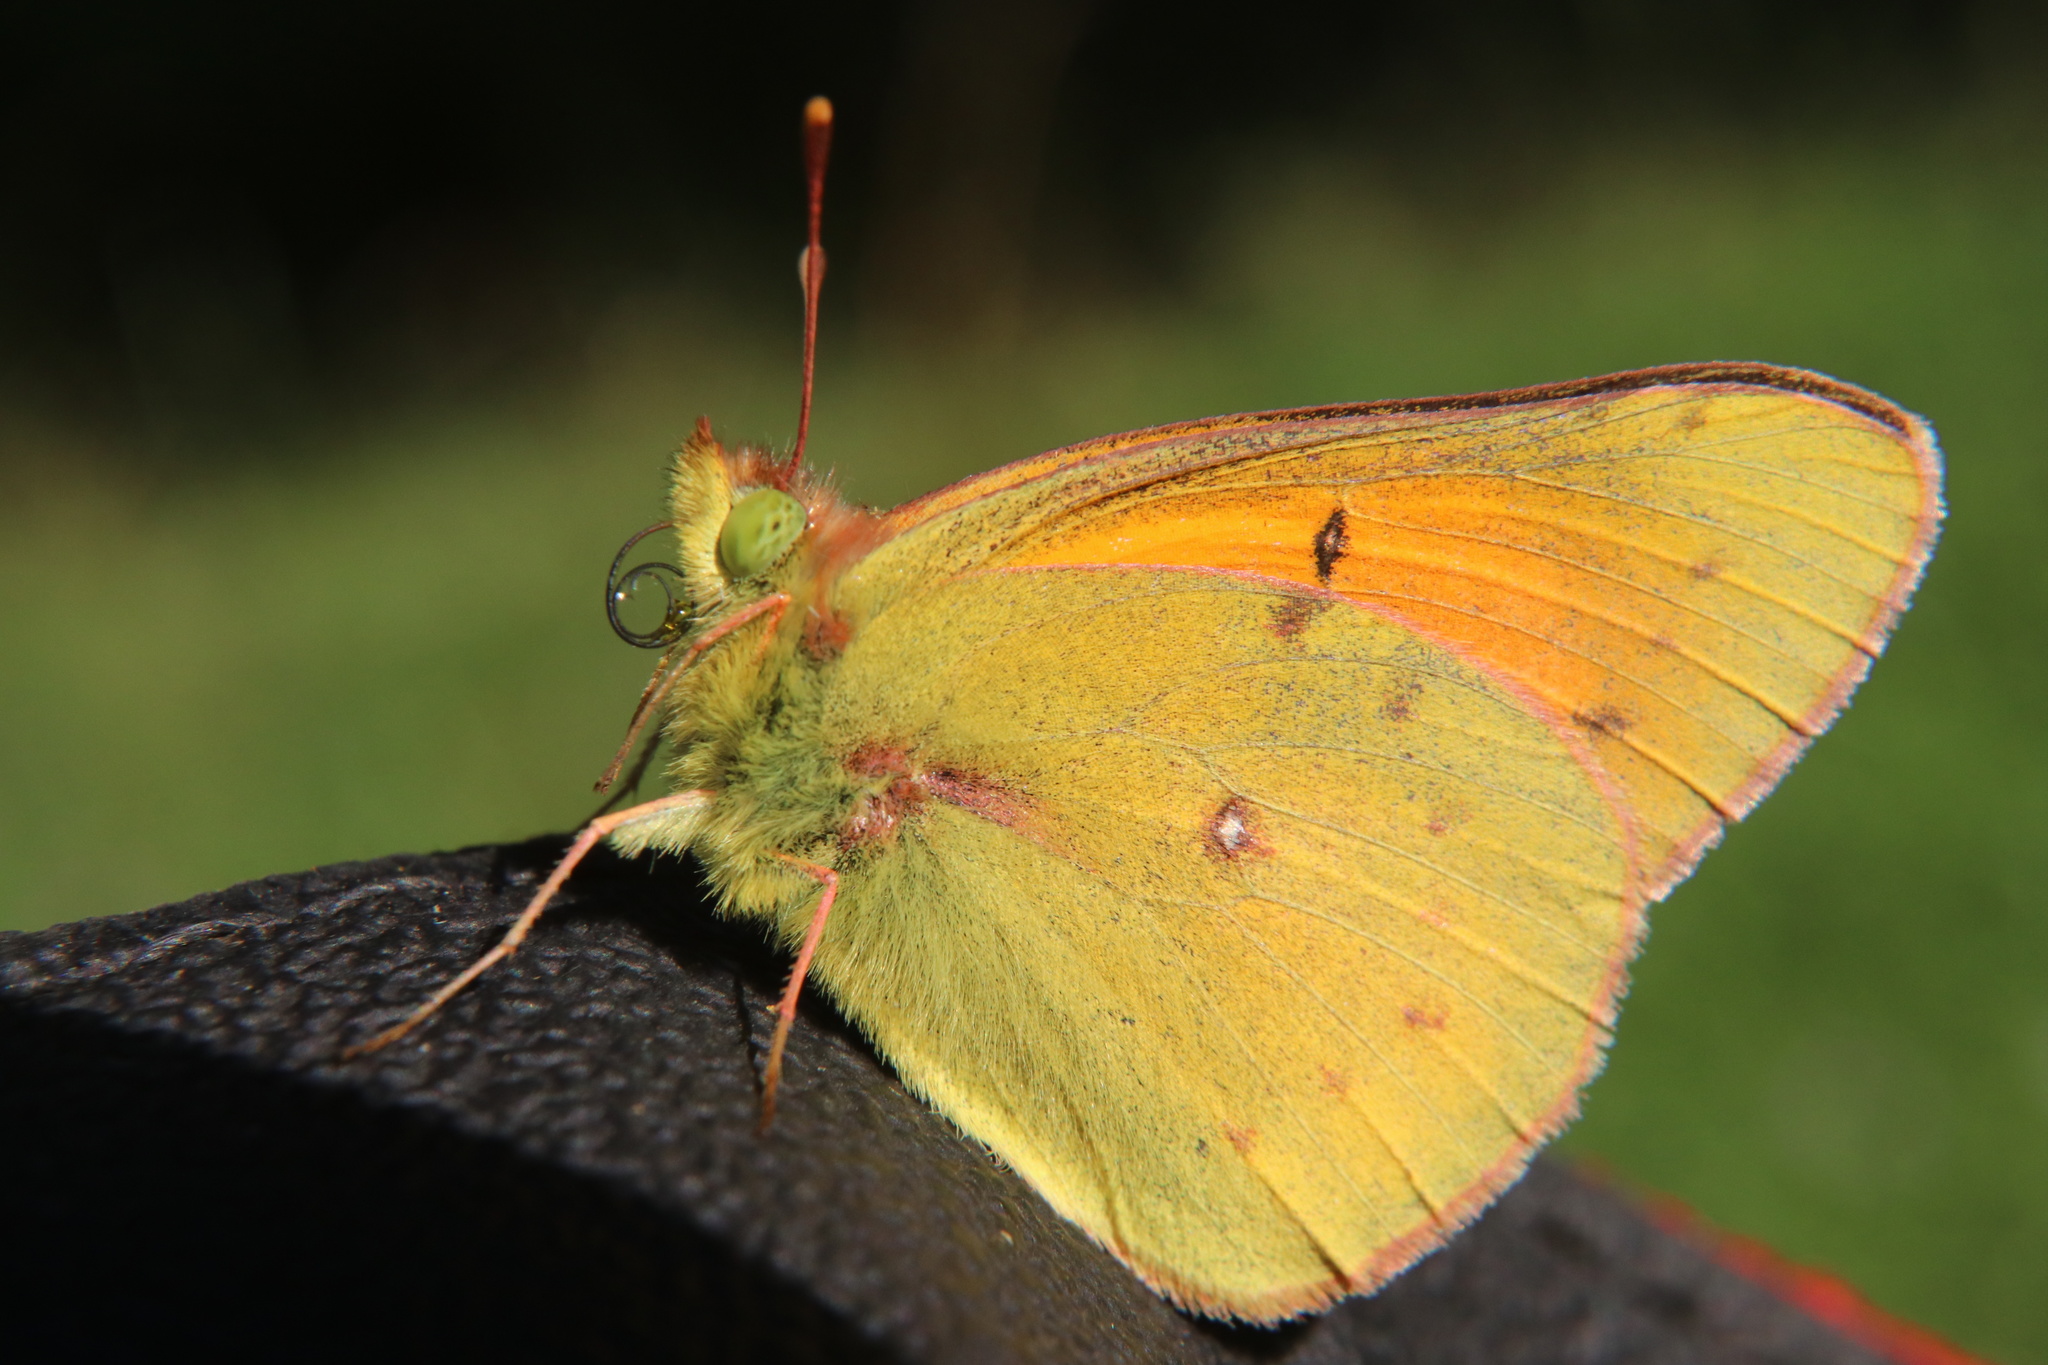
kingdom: Animalia
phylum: Arthropoda
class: Insecta
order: Lepidoptera
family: Pieridae
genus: Colias
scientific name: Colias vauthierii
